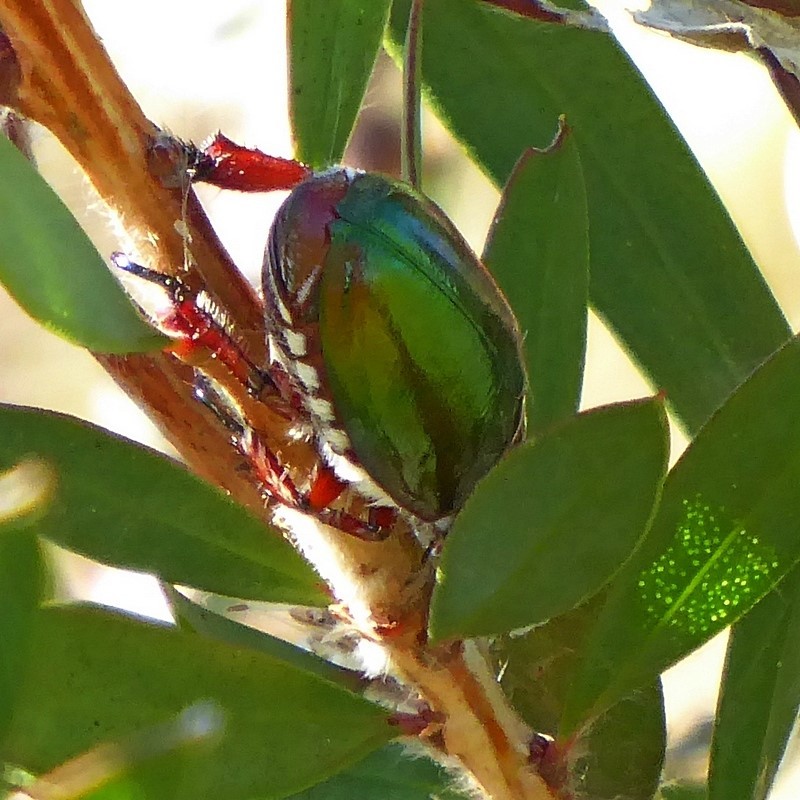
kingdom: Animalia
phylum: Arthropoda
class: Insecta
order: Coleoptera
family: Scarabaeidae
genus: Repsimus
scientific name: Repsimus aeneus
